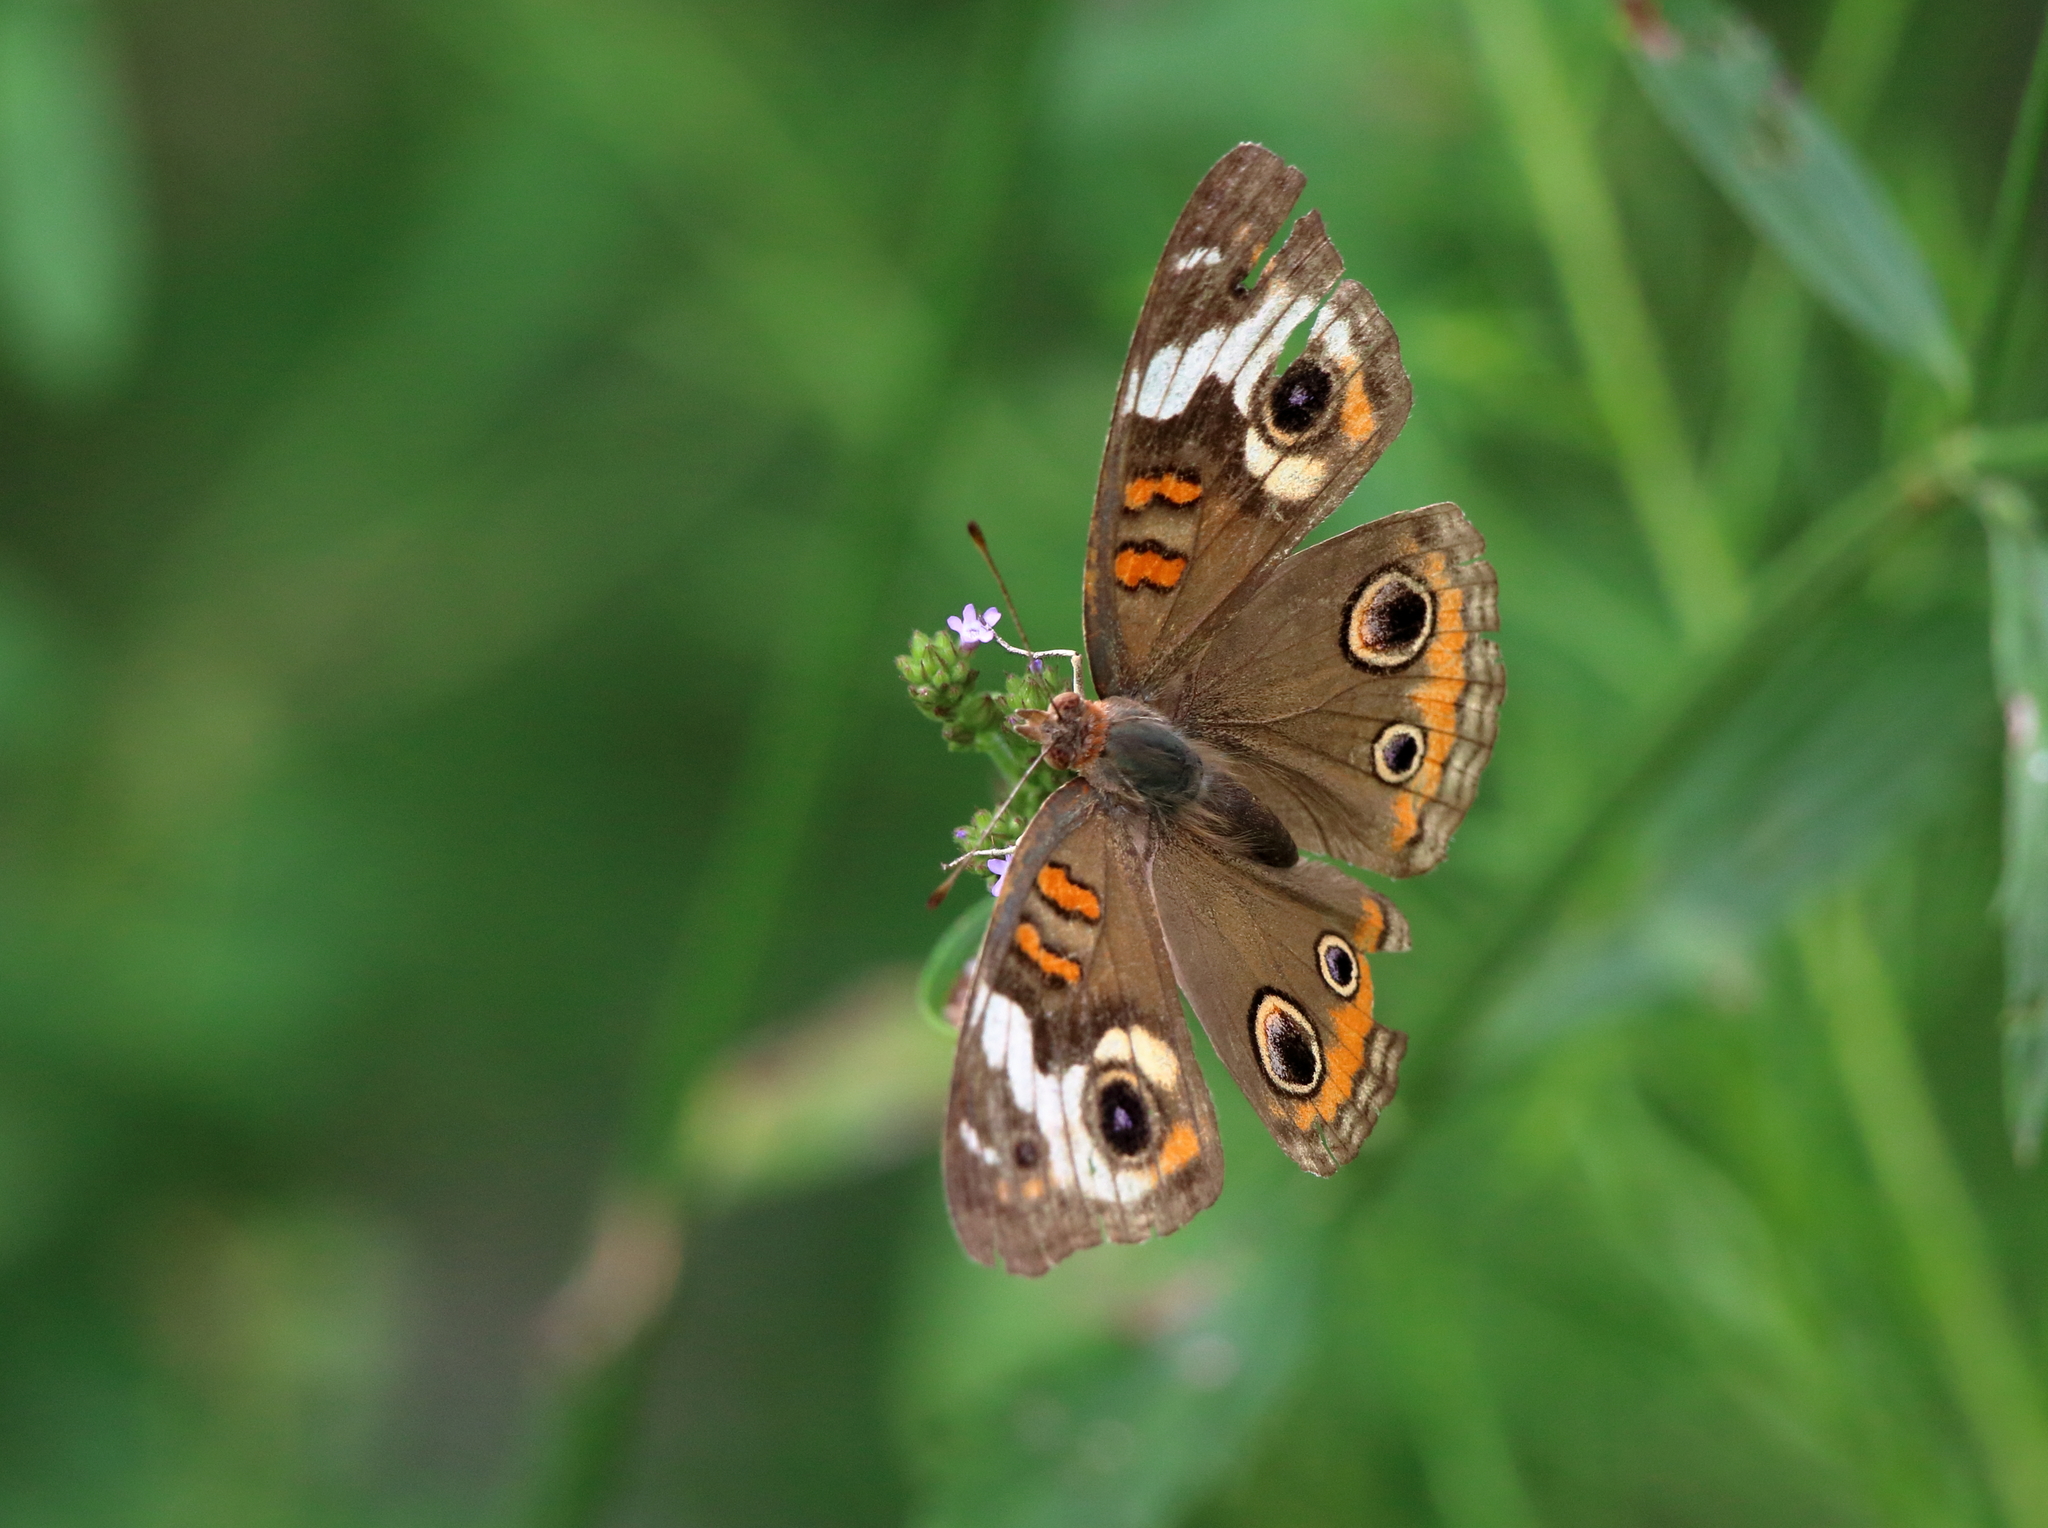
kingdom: Animalia
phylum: Arthropoda
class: Insecta
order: Lepidoptera
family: Nymphalidae
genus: Junonia
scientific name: Junonia coenia
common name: Common buckeye
